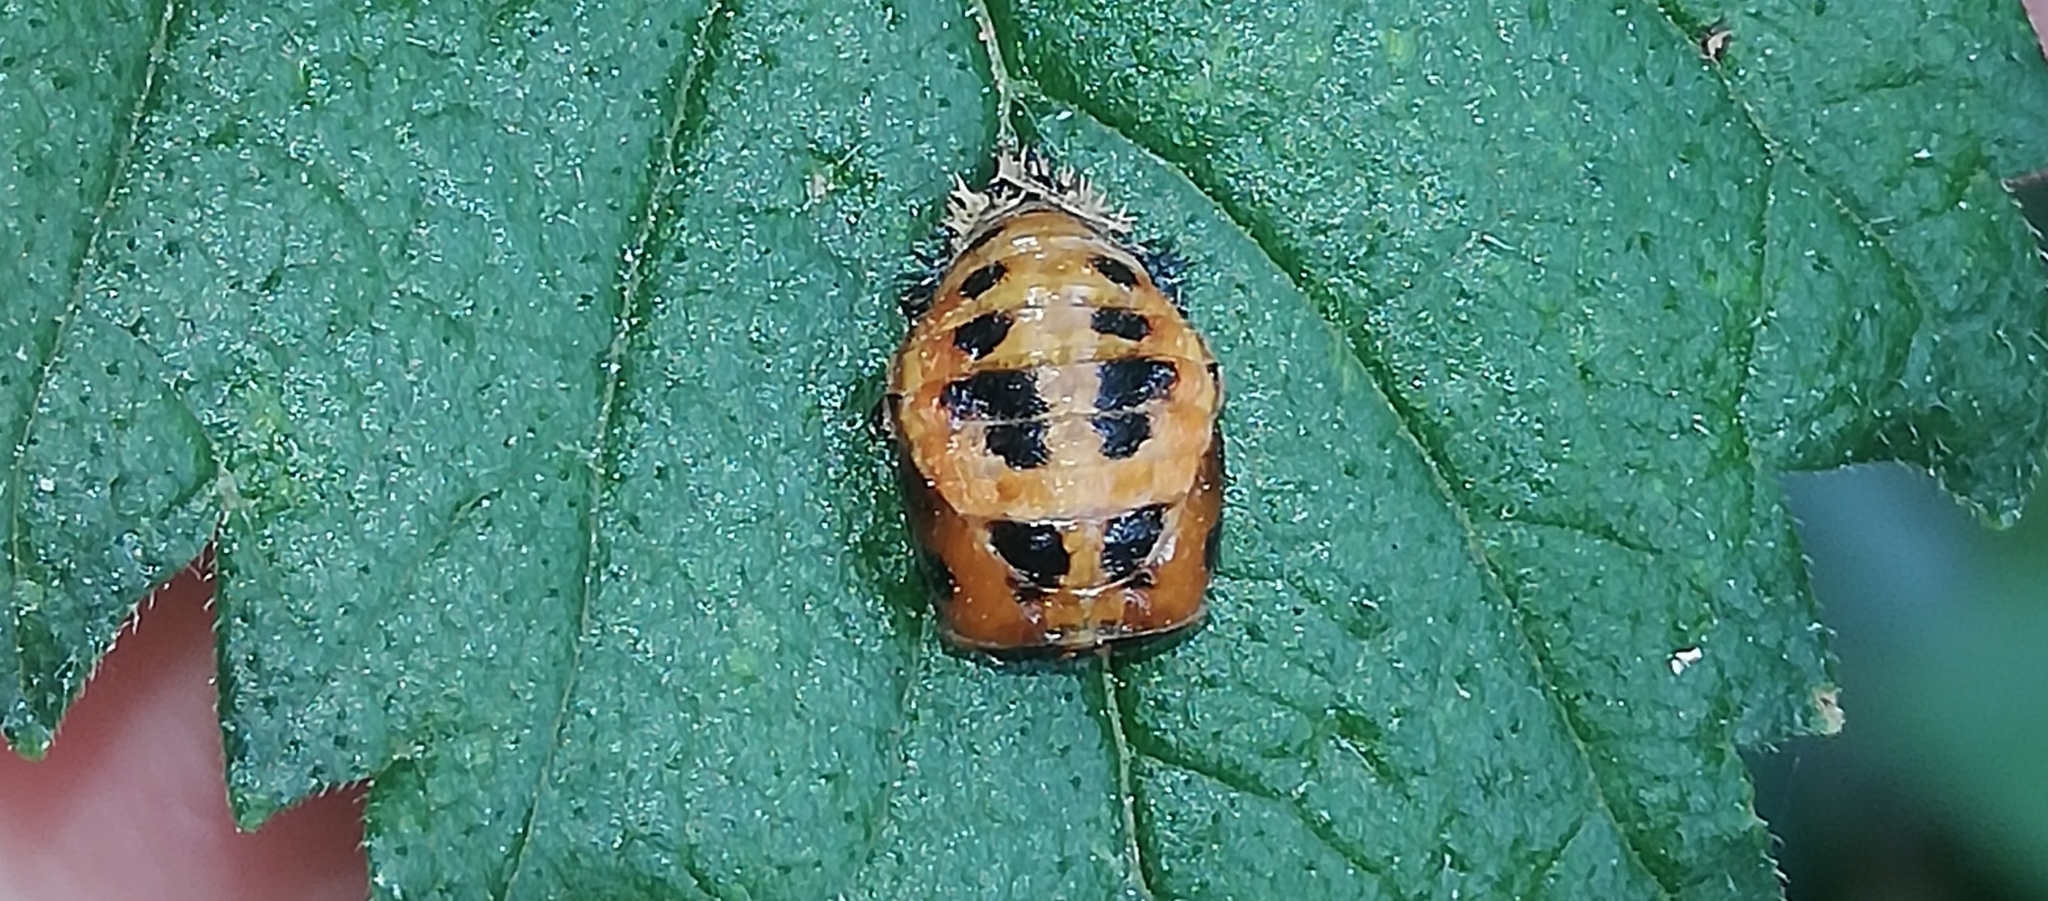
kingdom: Animalia
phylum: Arthropoda
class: Insecta
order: Coleoptera
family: Coccinellidae
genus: Harmonia
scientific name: Harmonia axyridis
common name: Harlequin ladybird
